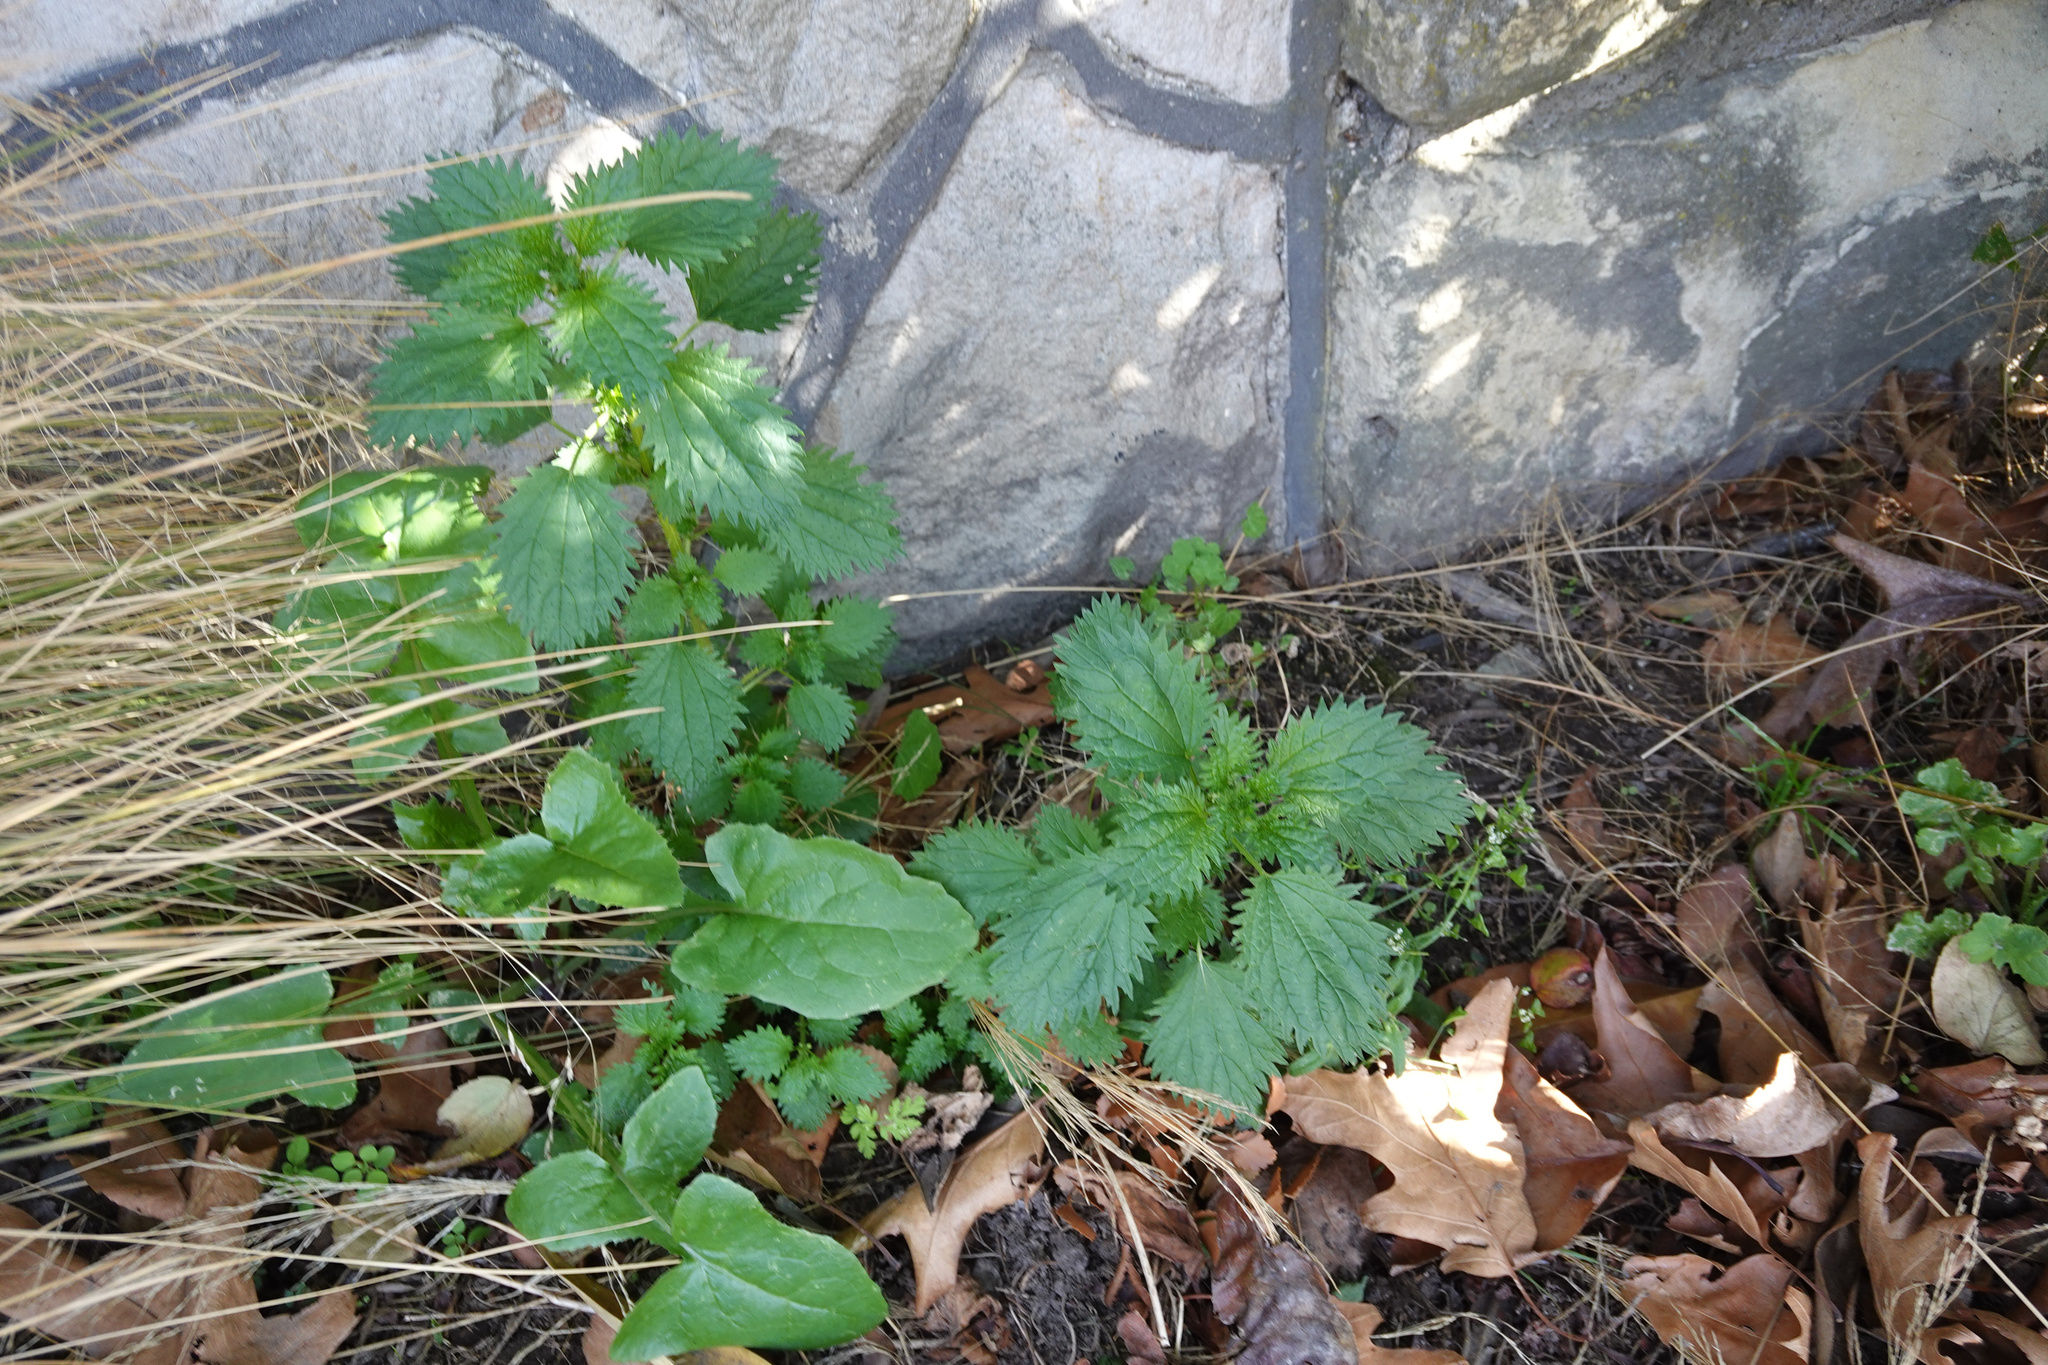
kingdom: Plantae
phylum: Tracheophyta
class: Magnoliopsida
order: Rosales
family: Urticaceae
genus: Urtica
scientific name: Urtica urens
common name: Dwarf nettle
